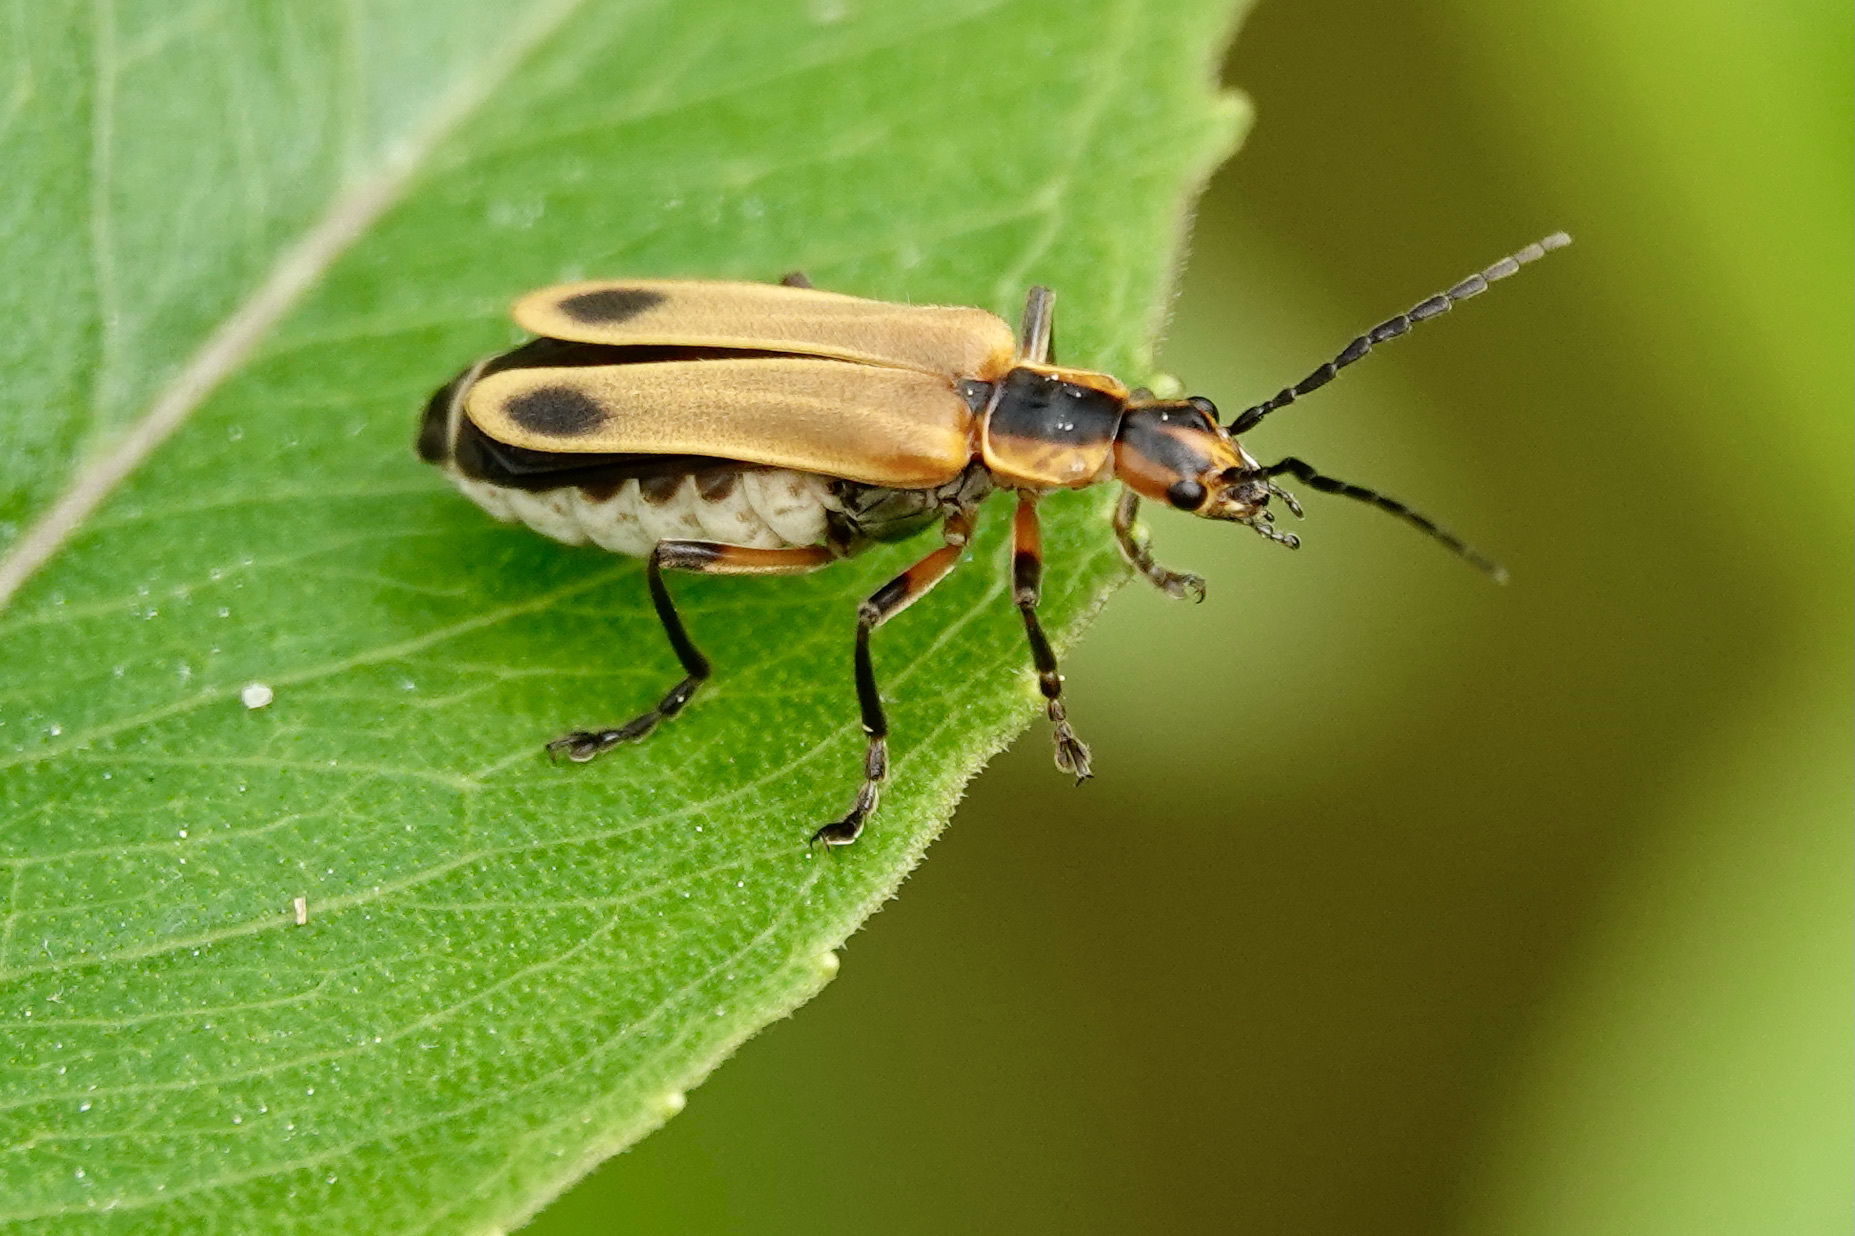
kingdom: Animalia
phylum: Arthropoda
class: Insecta
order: Coleoptera
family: Cantharidae
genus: Chauliognathus
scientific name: Chauliognathus marginatus
